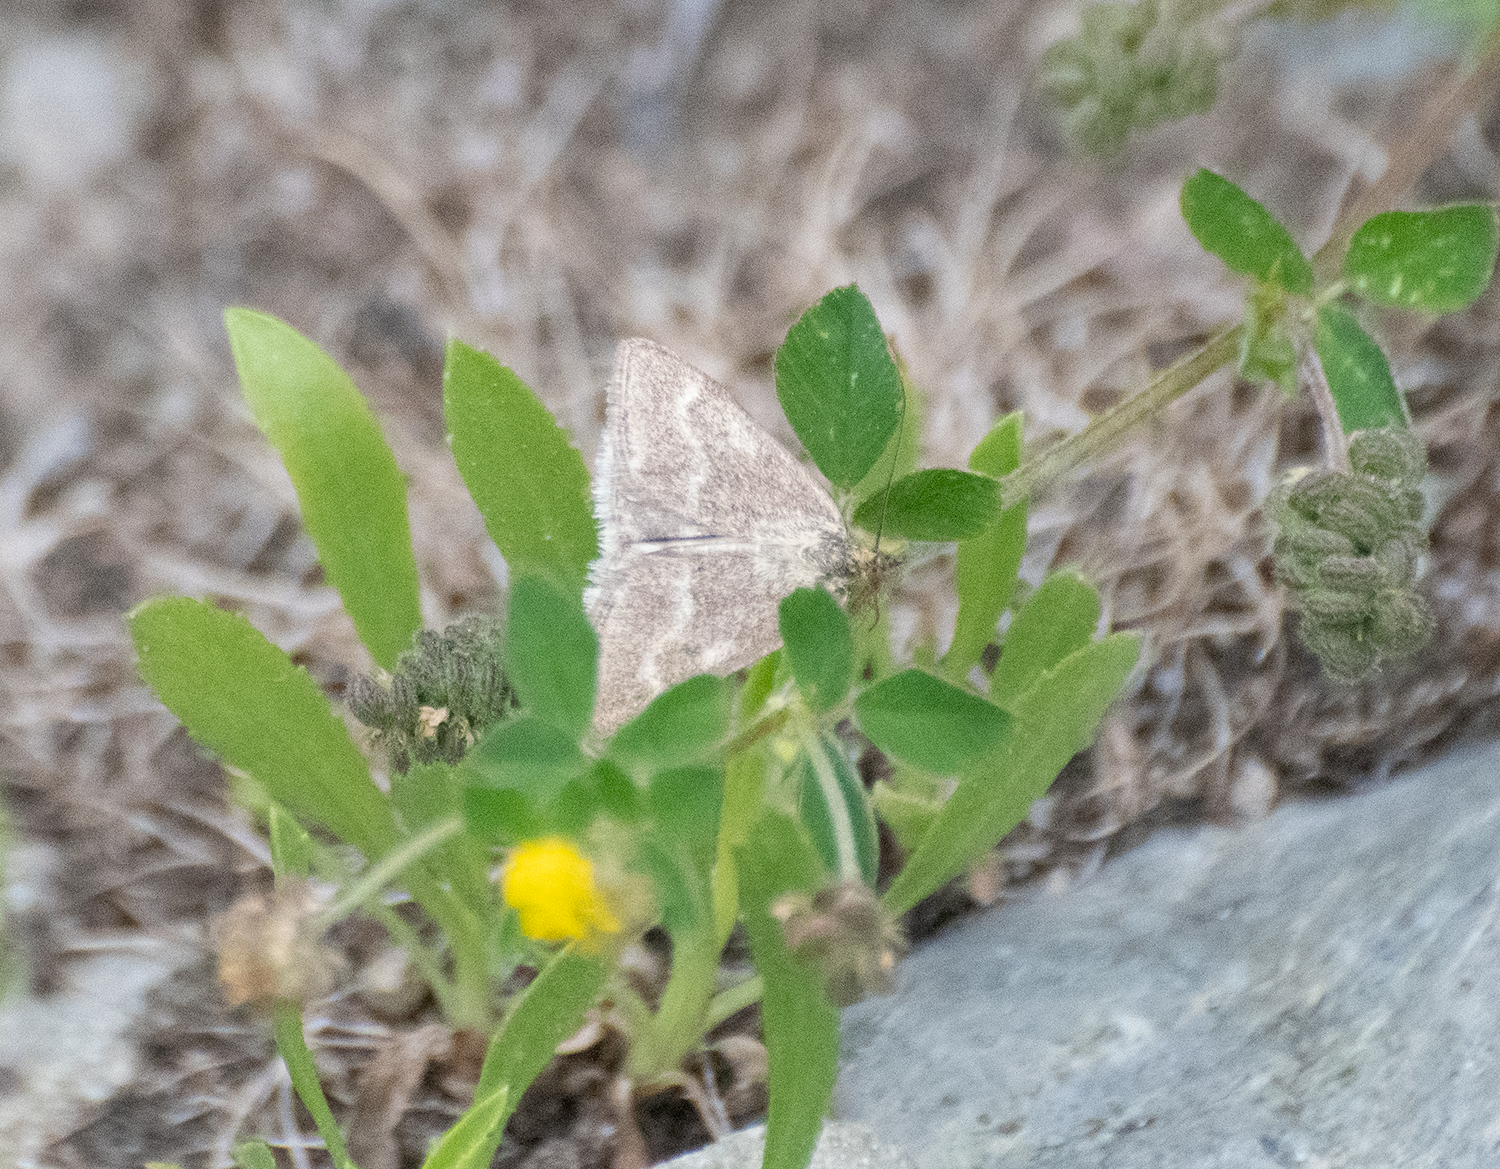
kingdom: Animalia
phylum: Arthropoda
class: Insecta
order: Lepidoptera
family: Crambidae
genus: Pyrausta
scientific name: Pyrausta unifascialis
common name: One-banded pyrausta
